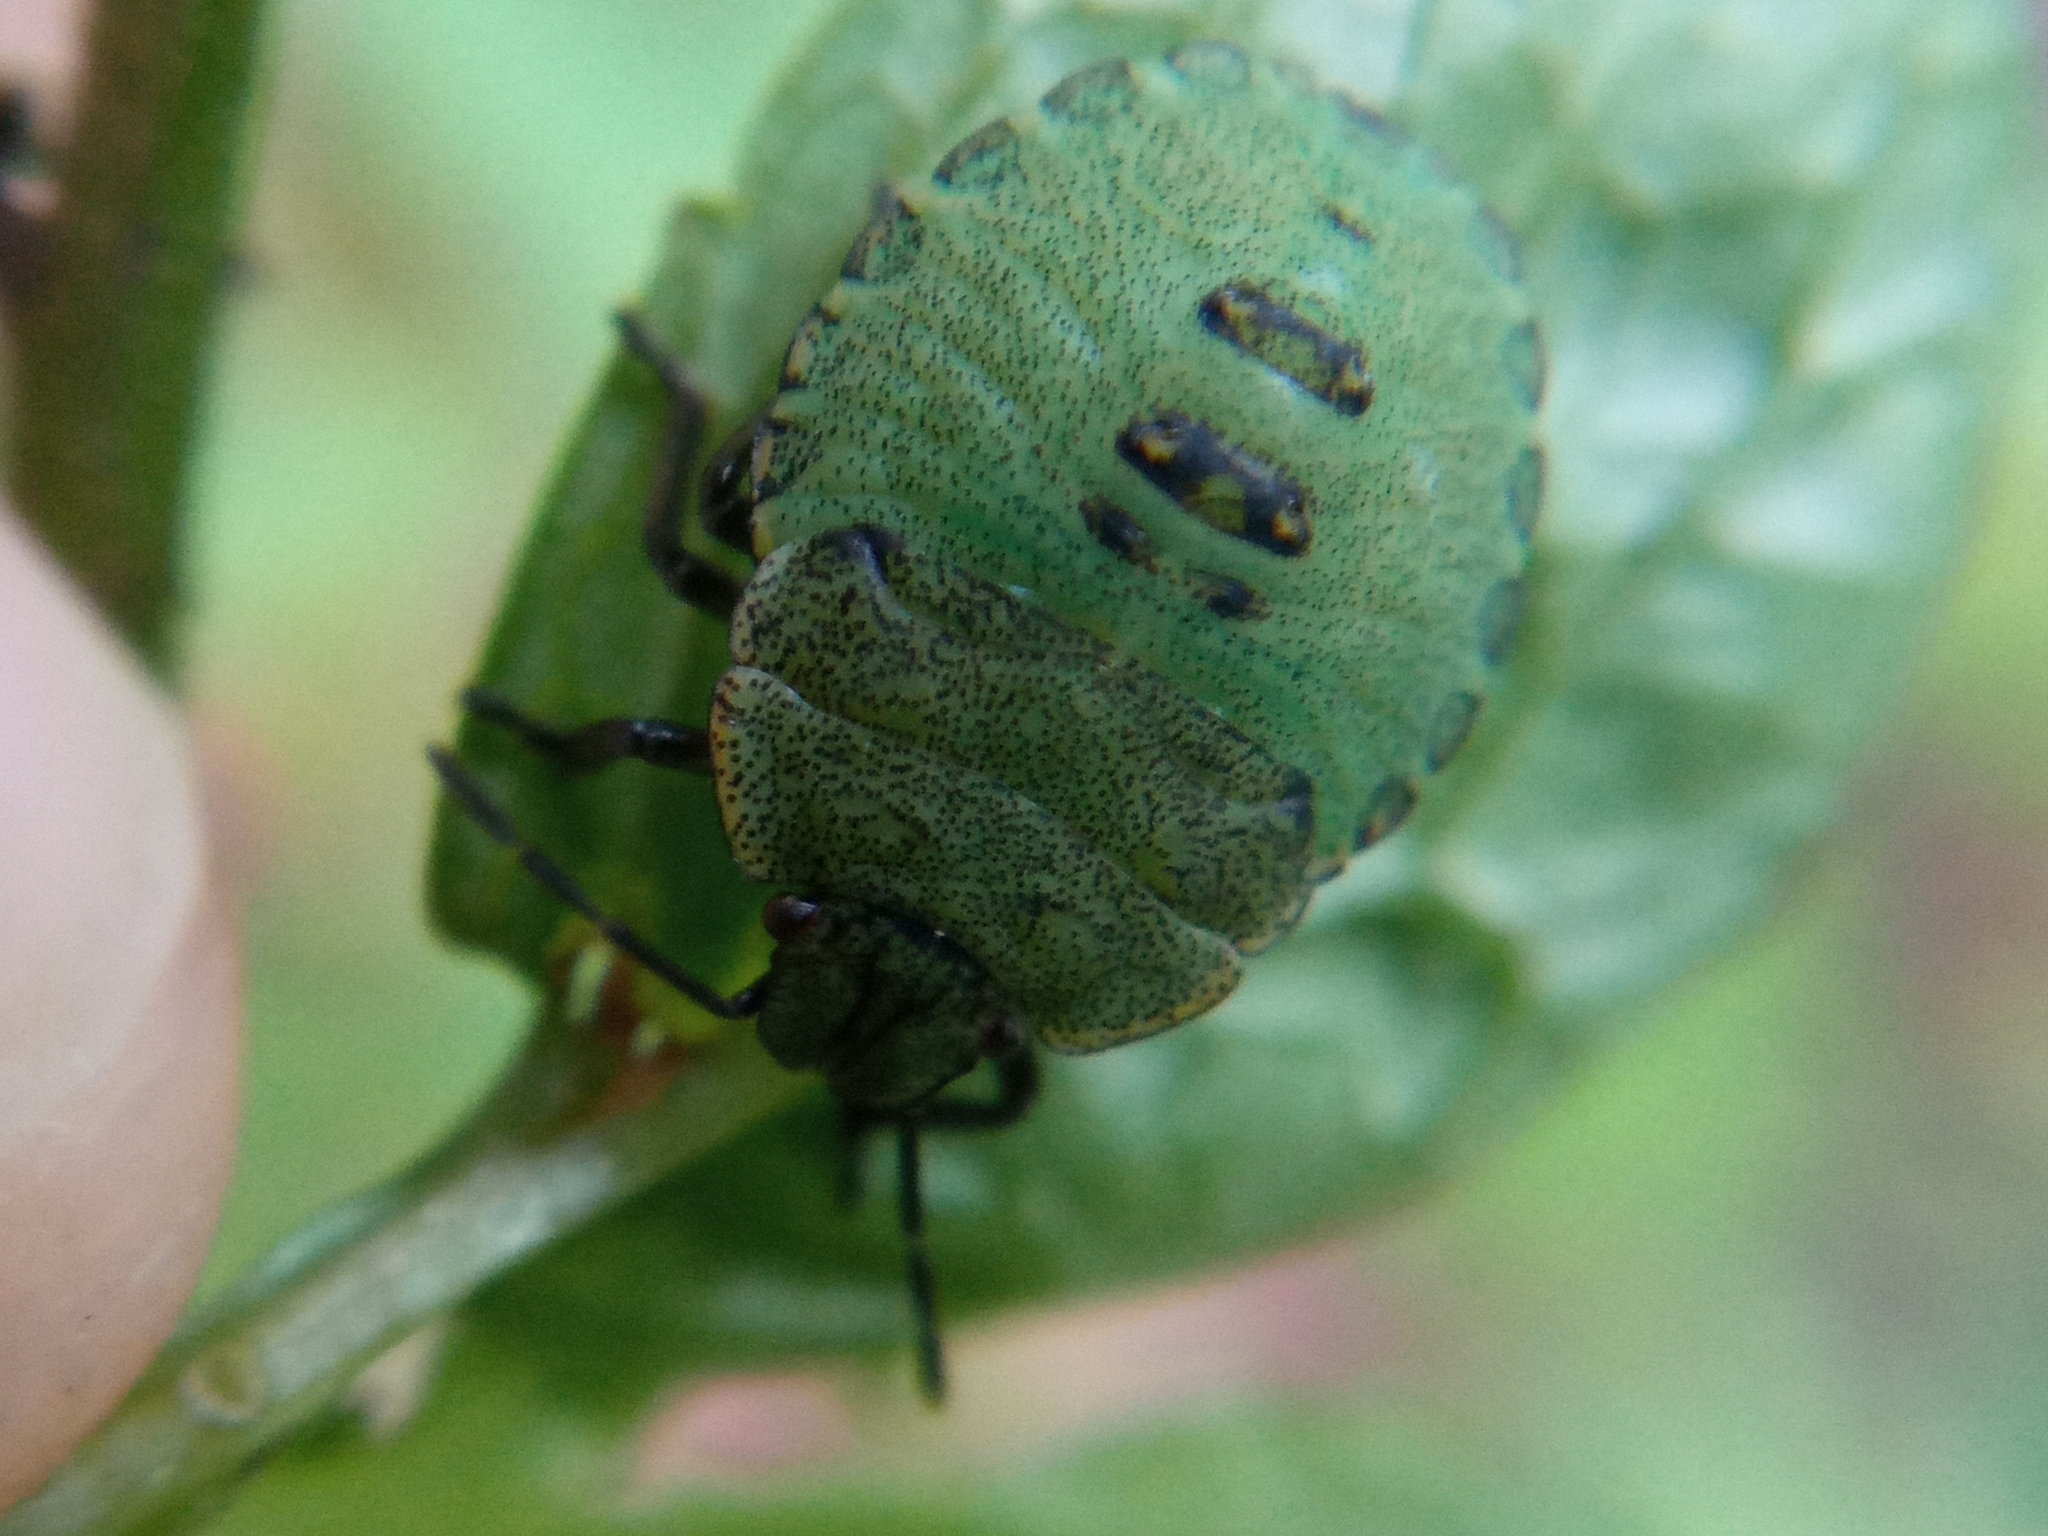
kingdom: Animalia
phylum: Arthropoda
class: Insecta
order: Hemiptera
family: Pentatomidae
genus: Palomena
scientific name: Palomena prasina
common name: Green shieldbug
